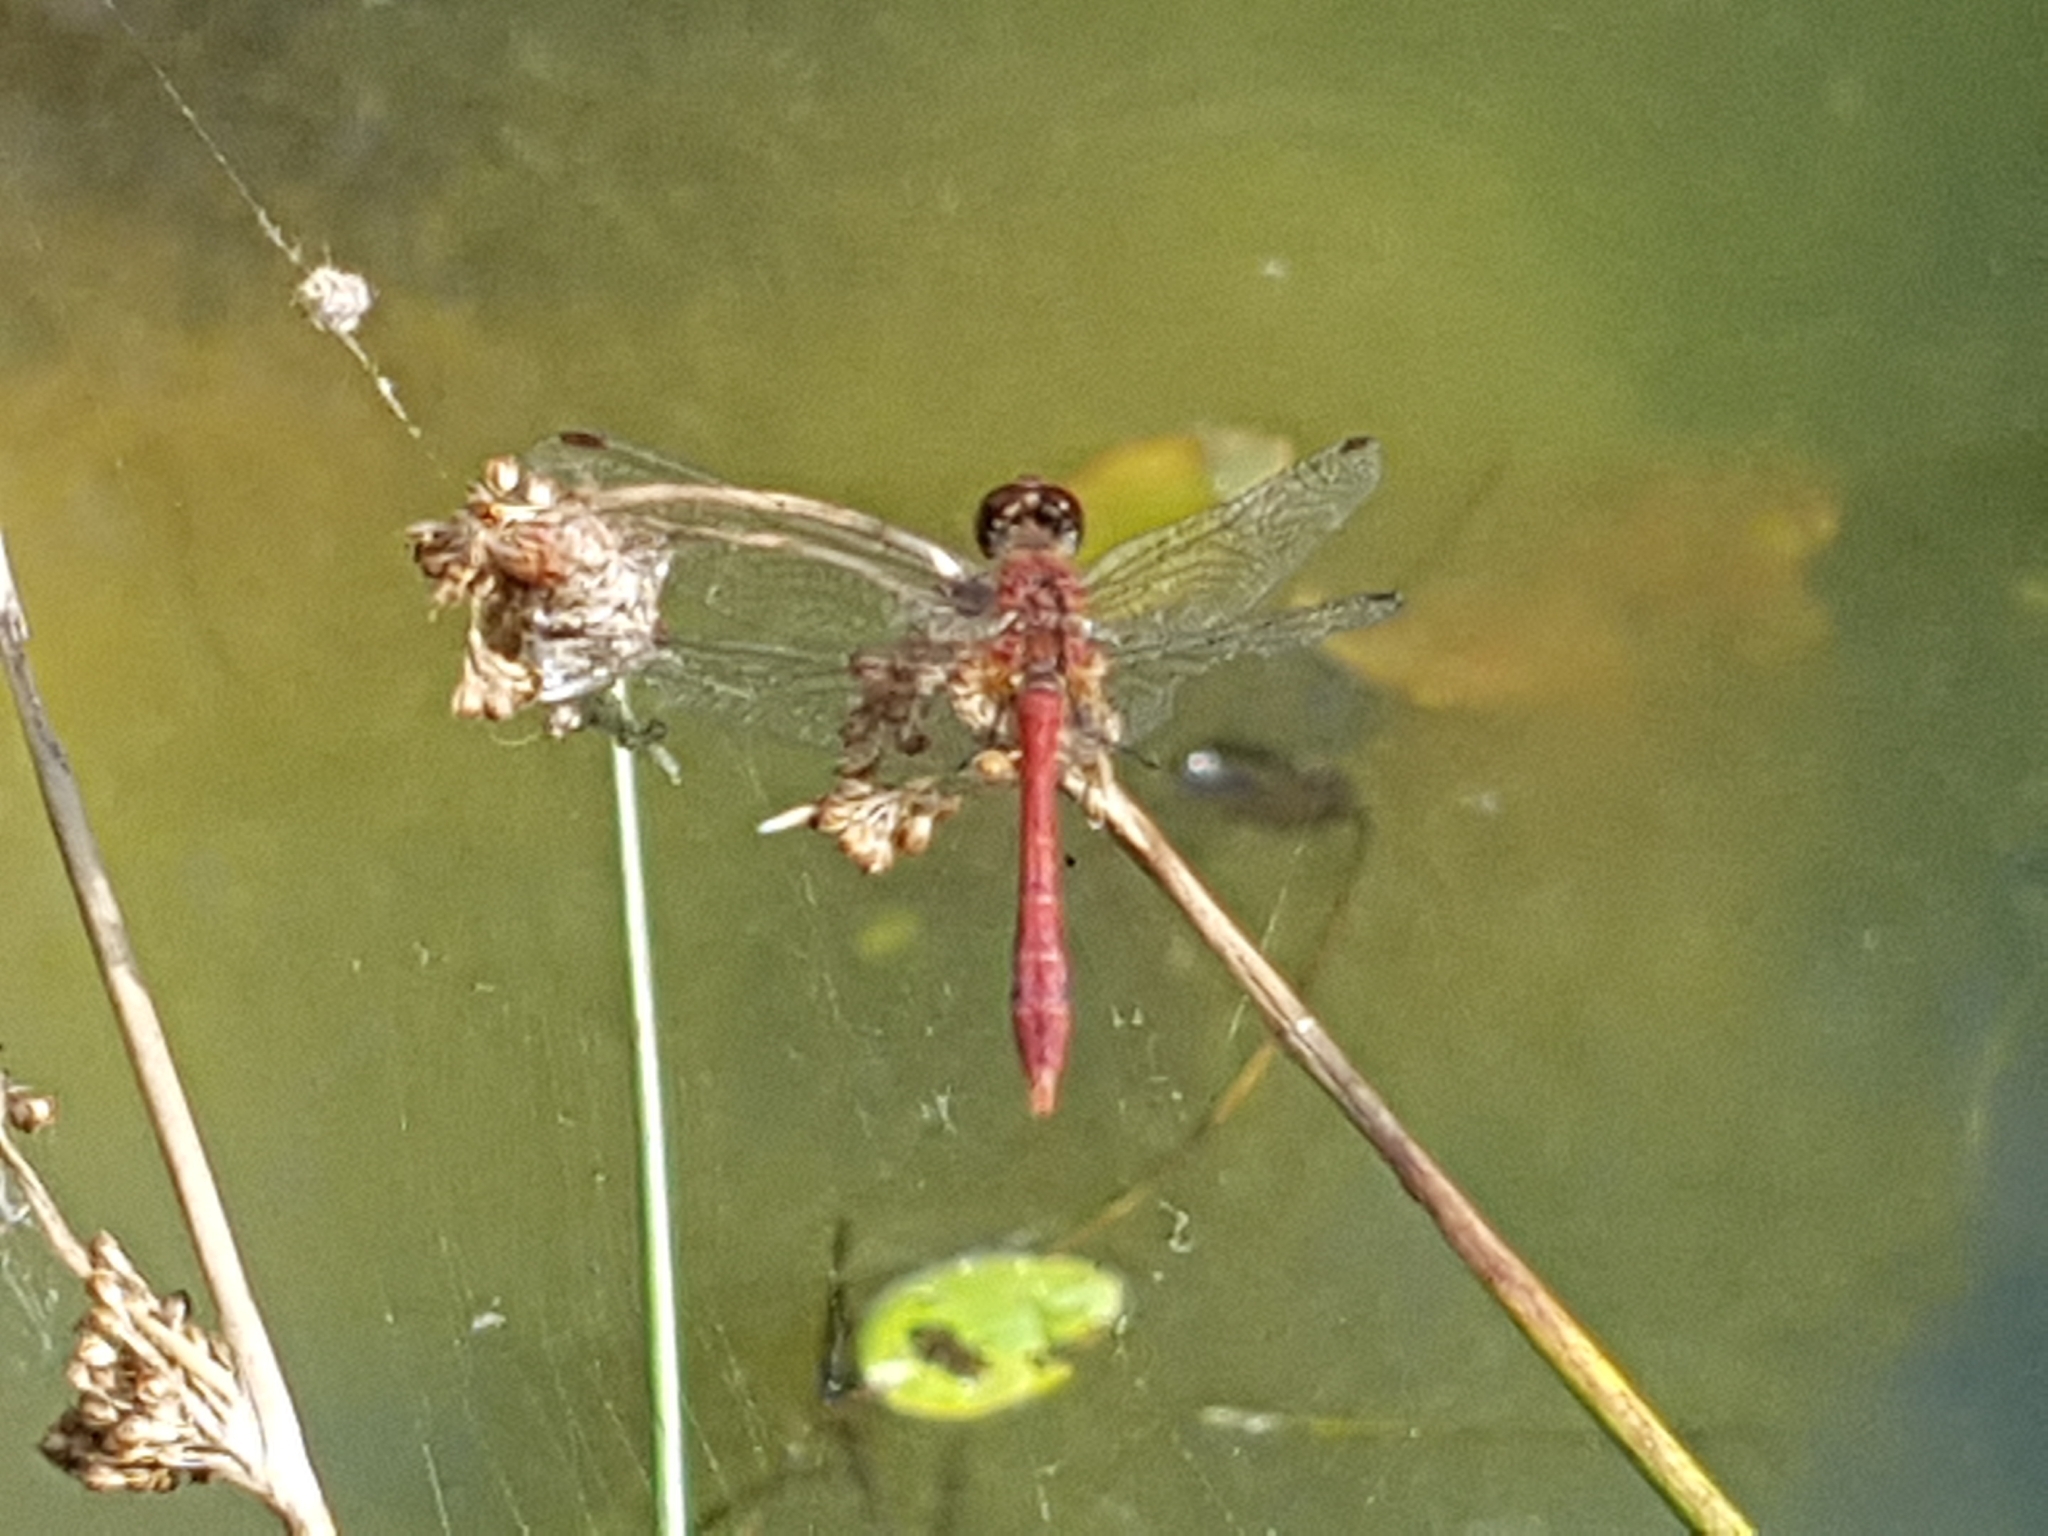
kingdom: Animalia
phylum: Arthropoda
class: Insecta
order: Odonata
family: Libellulidae
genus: Sympetrum
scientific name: Sympetrum sanguineum
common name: Ruddy darter
